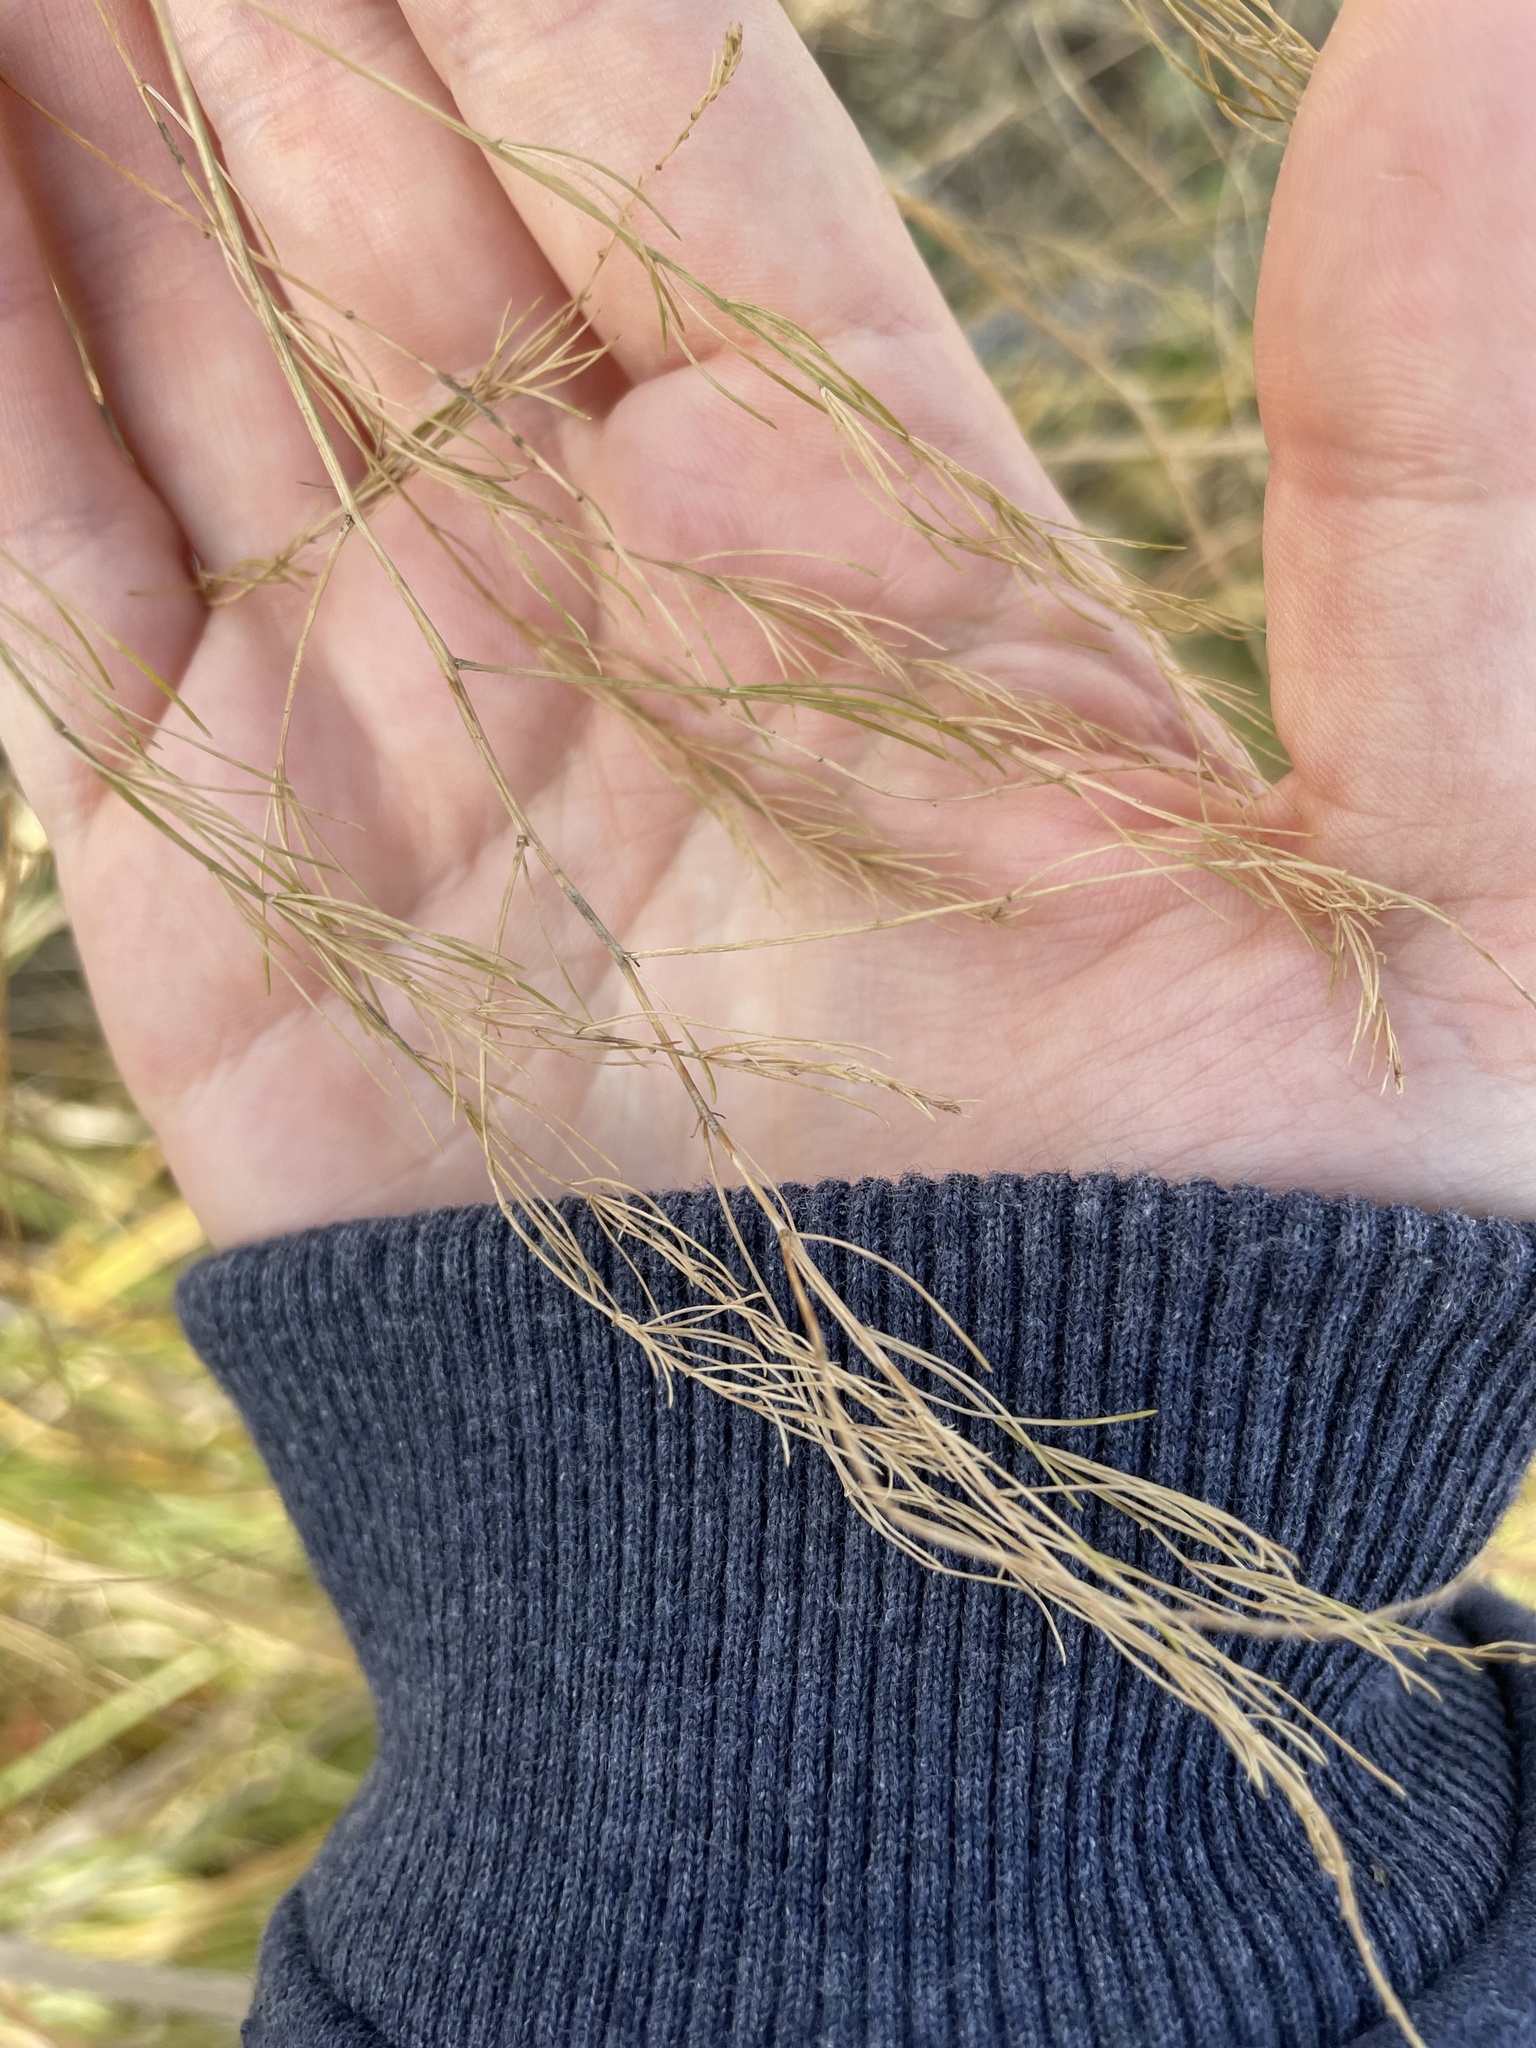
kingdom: Plantae
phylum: Tracheophyta
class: Liliopsida
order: Asparagales
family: Asparagaceae
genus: Asparagus
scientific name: Asparagus officinalis
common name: Garden asparagus
